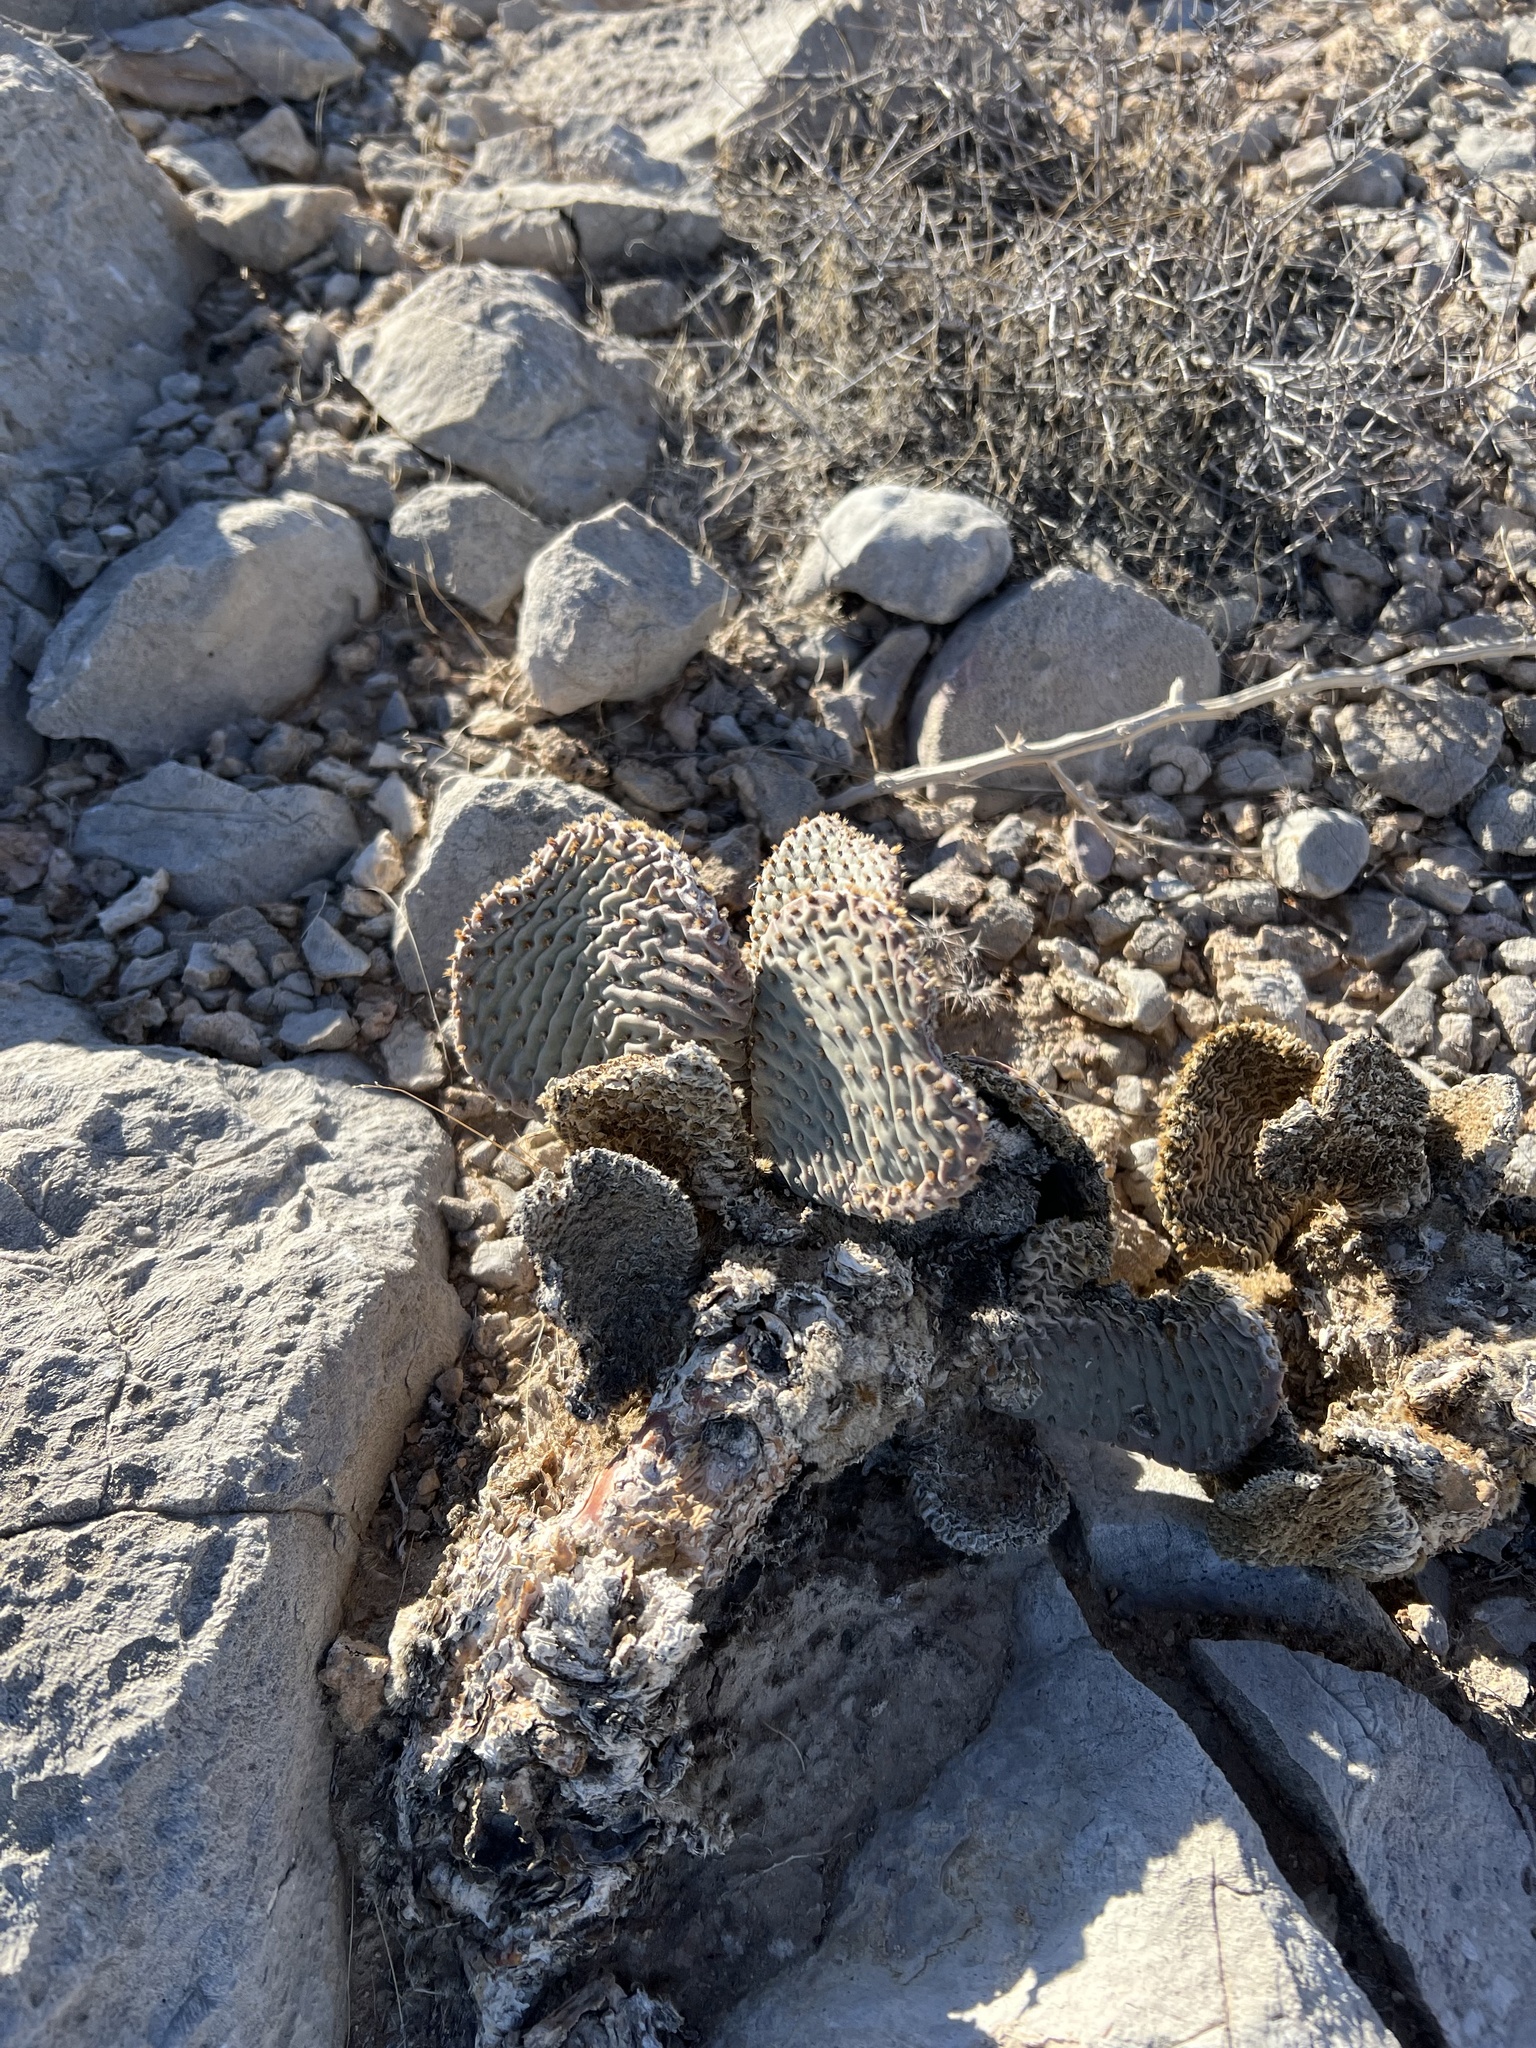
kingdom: Plantae
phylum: Tracheophyta
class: Magnoliopsida
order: Caryophyllales
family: Cactaceae
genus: Opuntia
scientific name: Opuntia basilaris
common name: Beavertail prickly-pear
